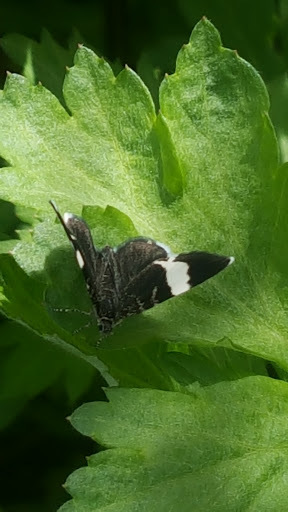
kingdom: Animalia
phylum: Arthropoda
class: Insecta
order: Lepidoptera
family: Geometridae
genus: Trichodezia
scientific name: Trichodezia albovittata
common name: White striped black
